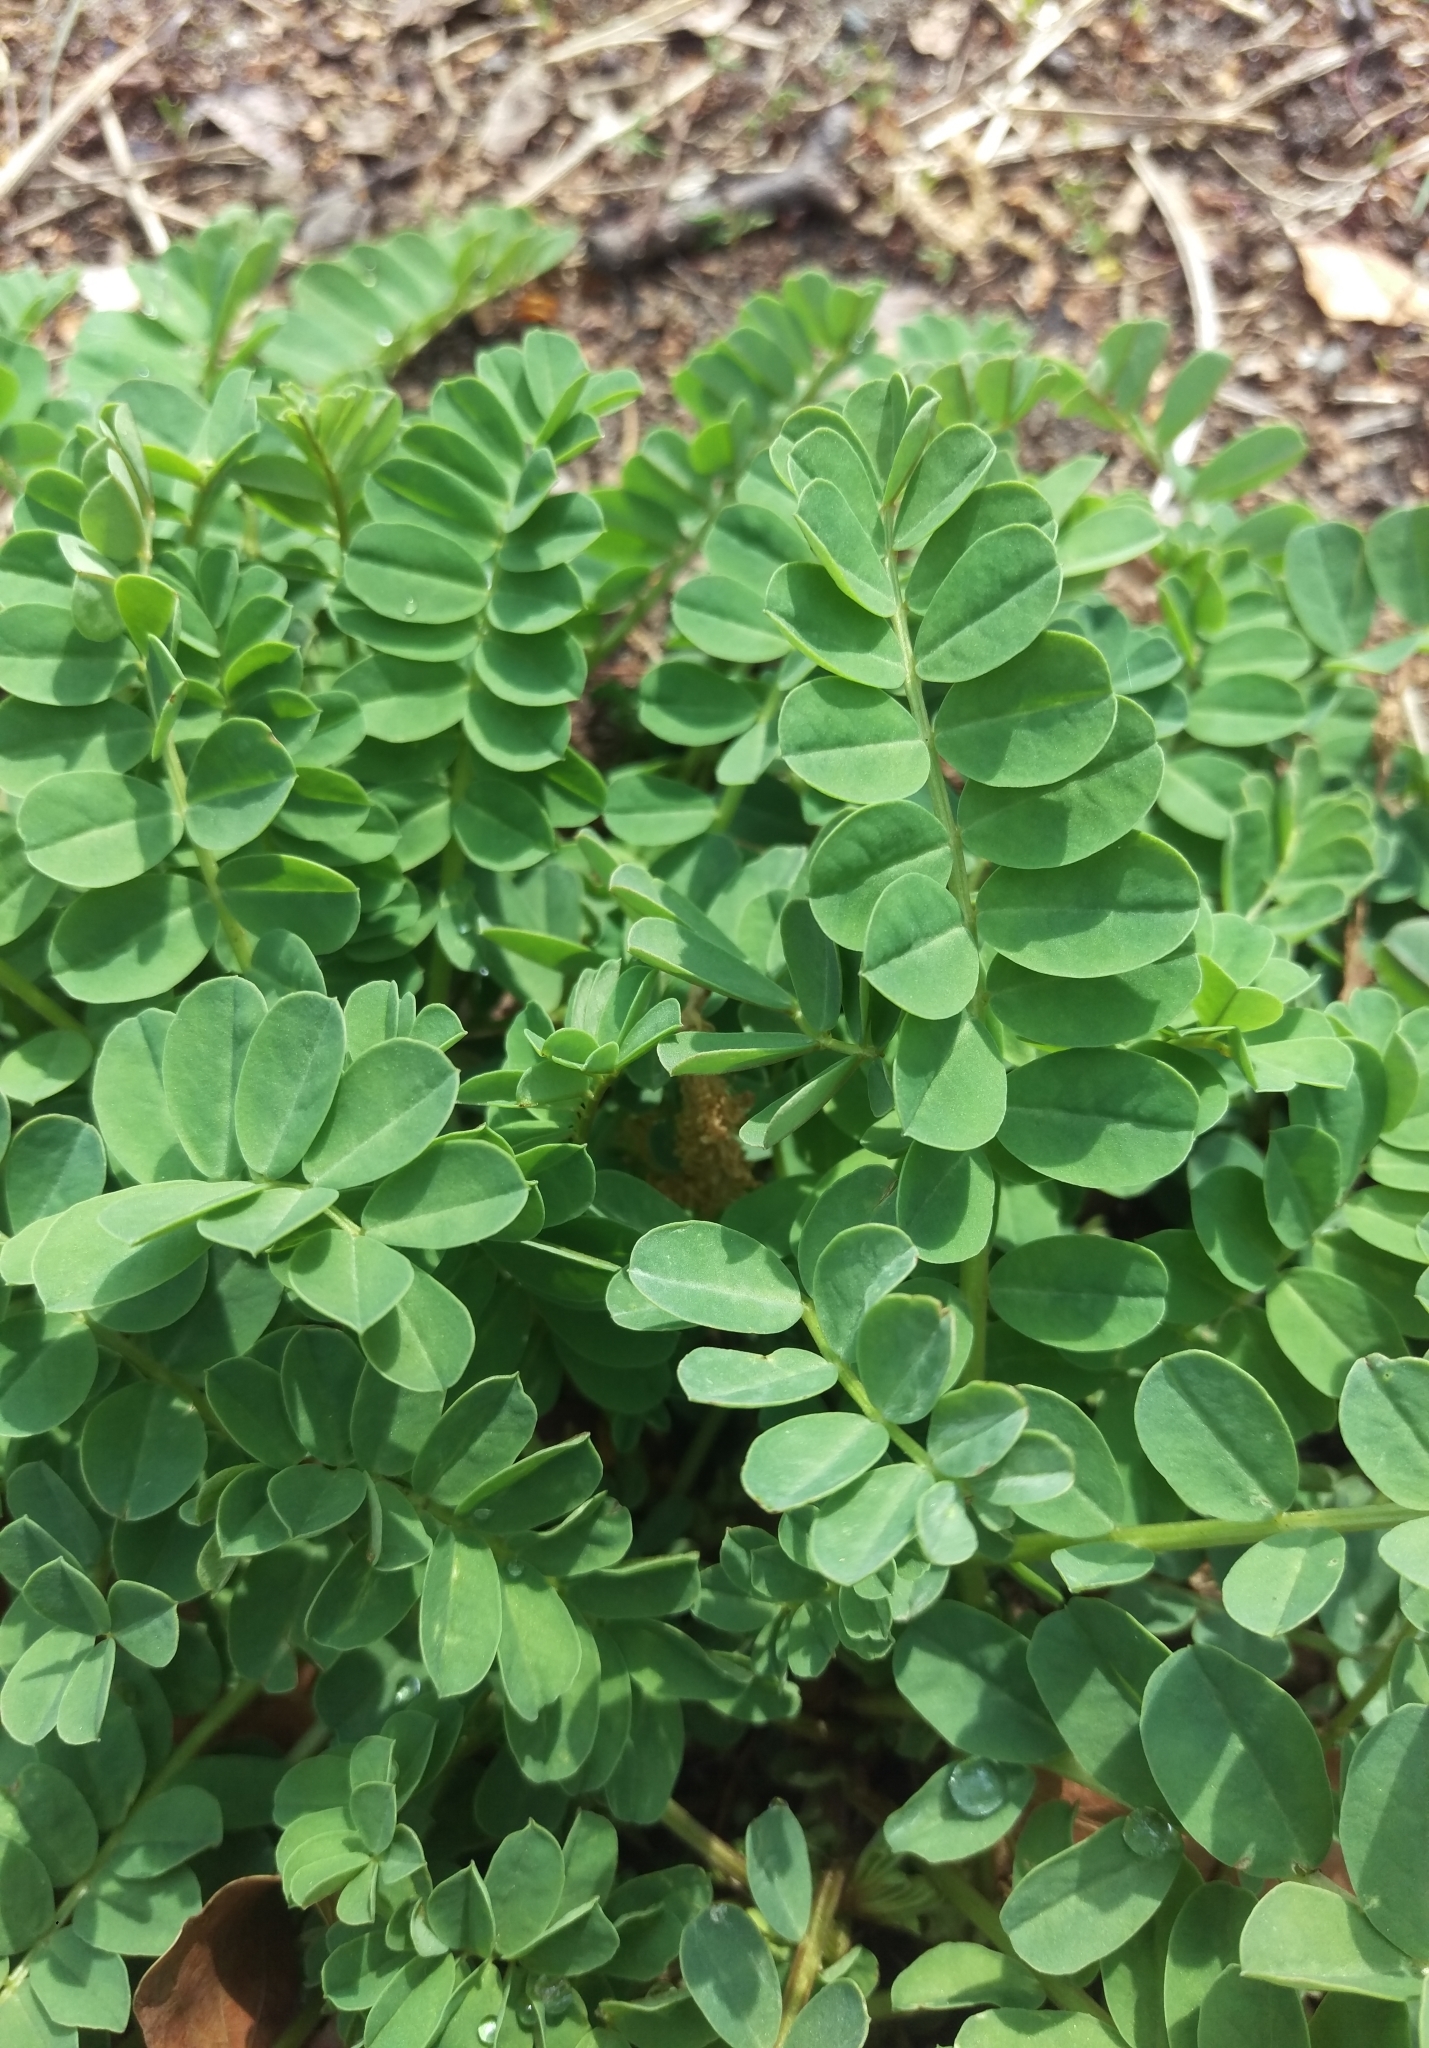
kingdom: Plantae
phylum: Tracheophyta
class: Magnoliopsida
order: Fabales
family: Fabaceae
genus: Coronilla
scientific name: Coronilla varia
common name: Crownvetch
